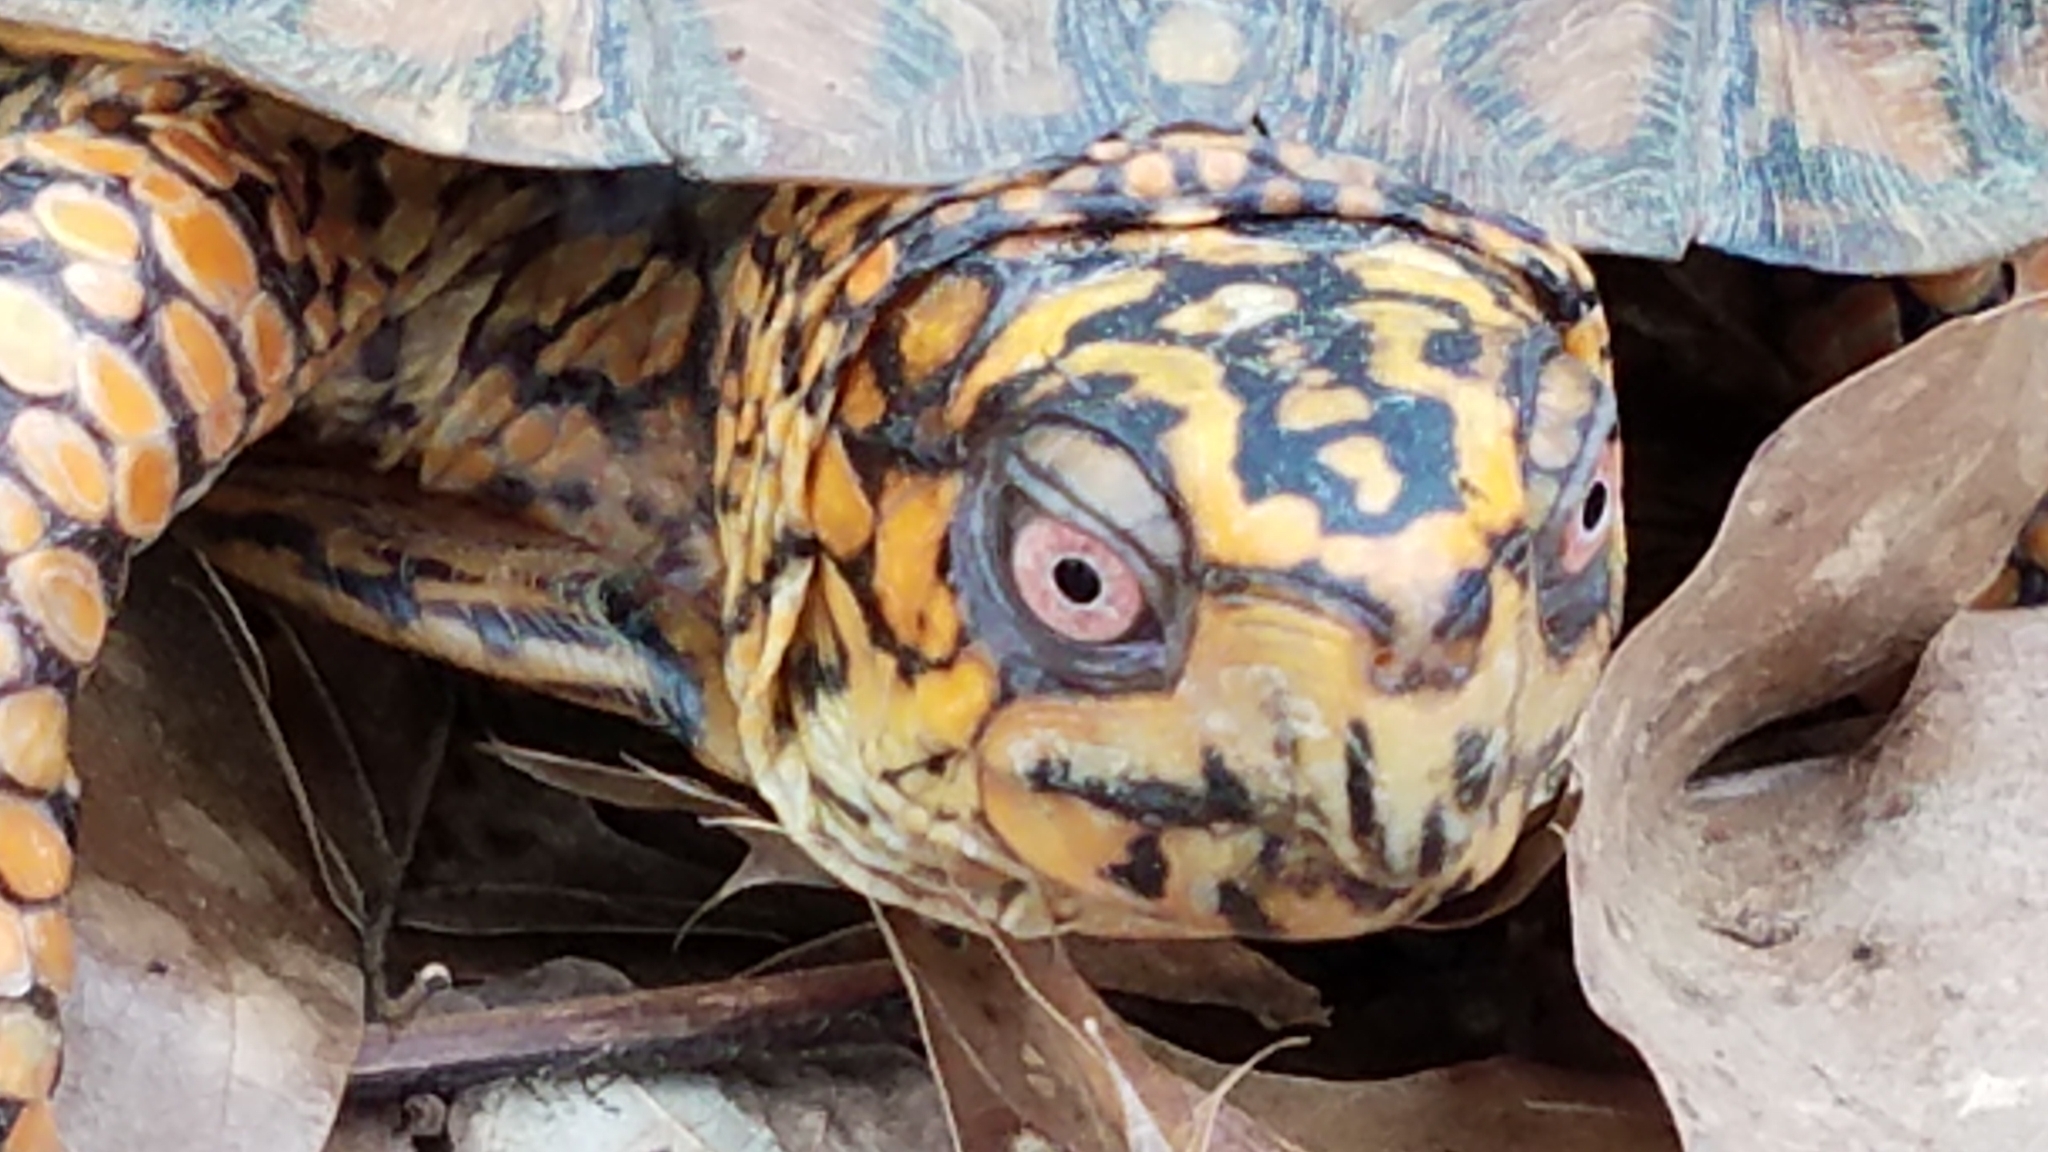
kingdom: Animalia
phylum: Chordata
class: Testudines
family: Emydidae
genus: Terrapene
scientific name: Terrapene carolina
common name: Common box turtle
